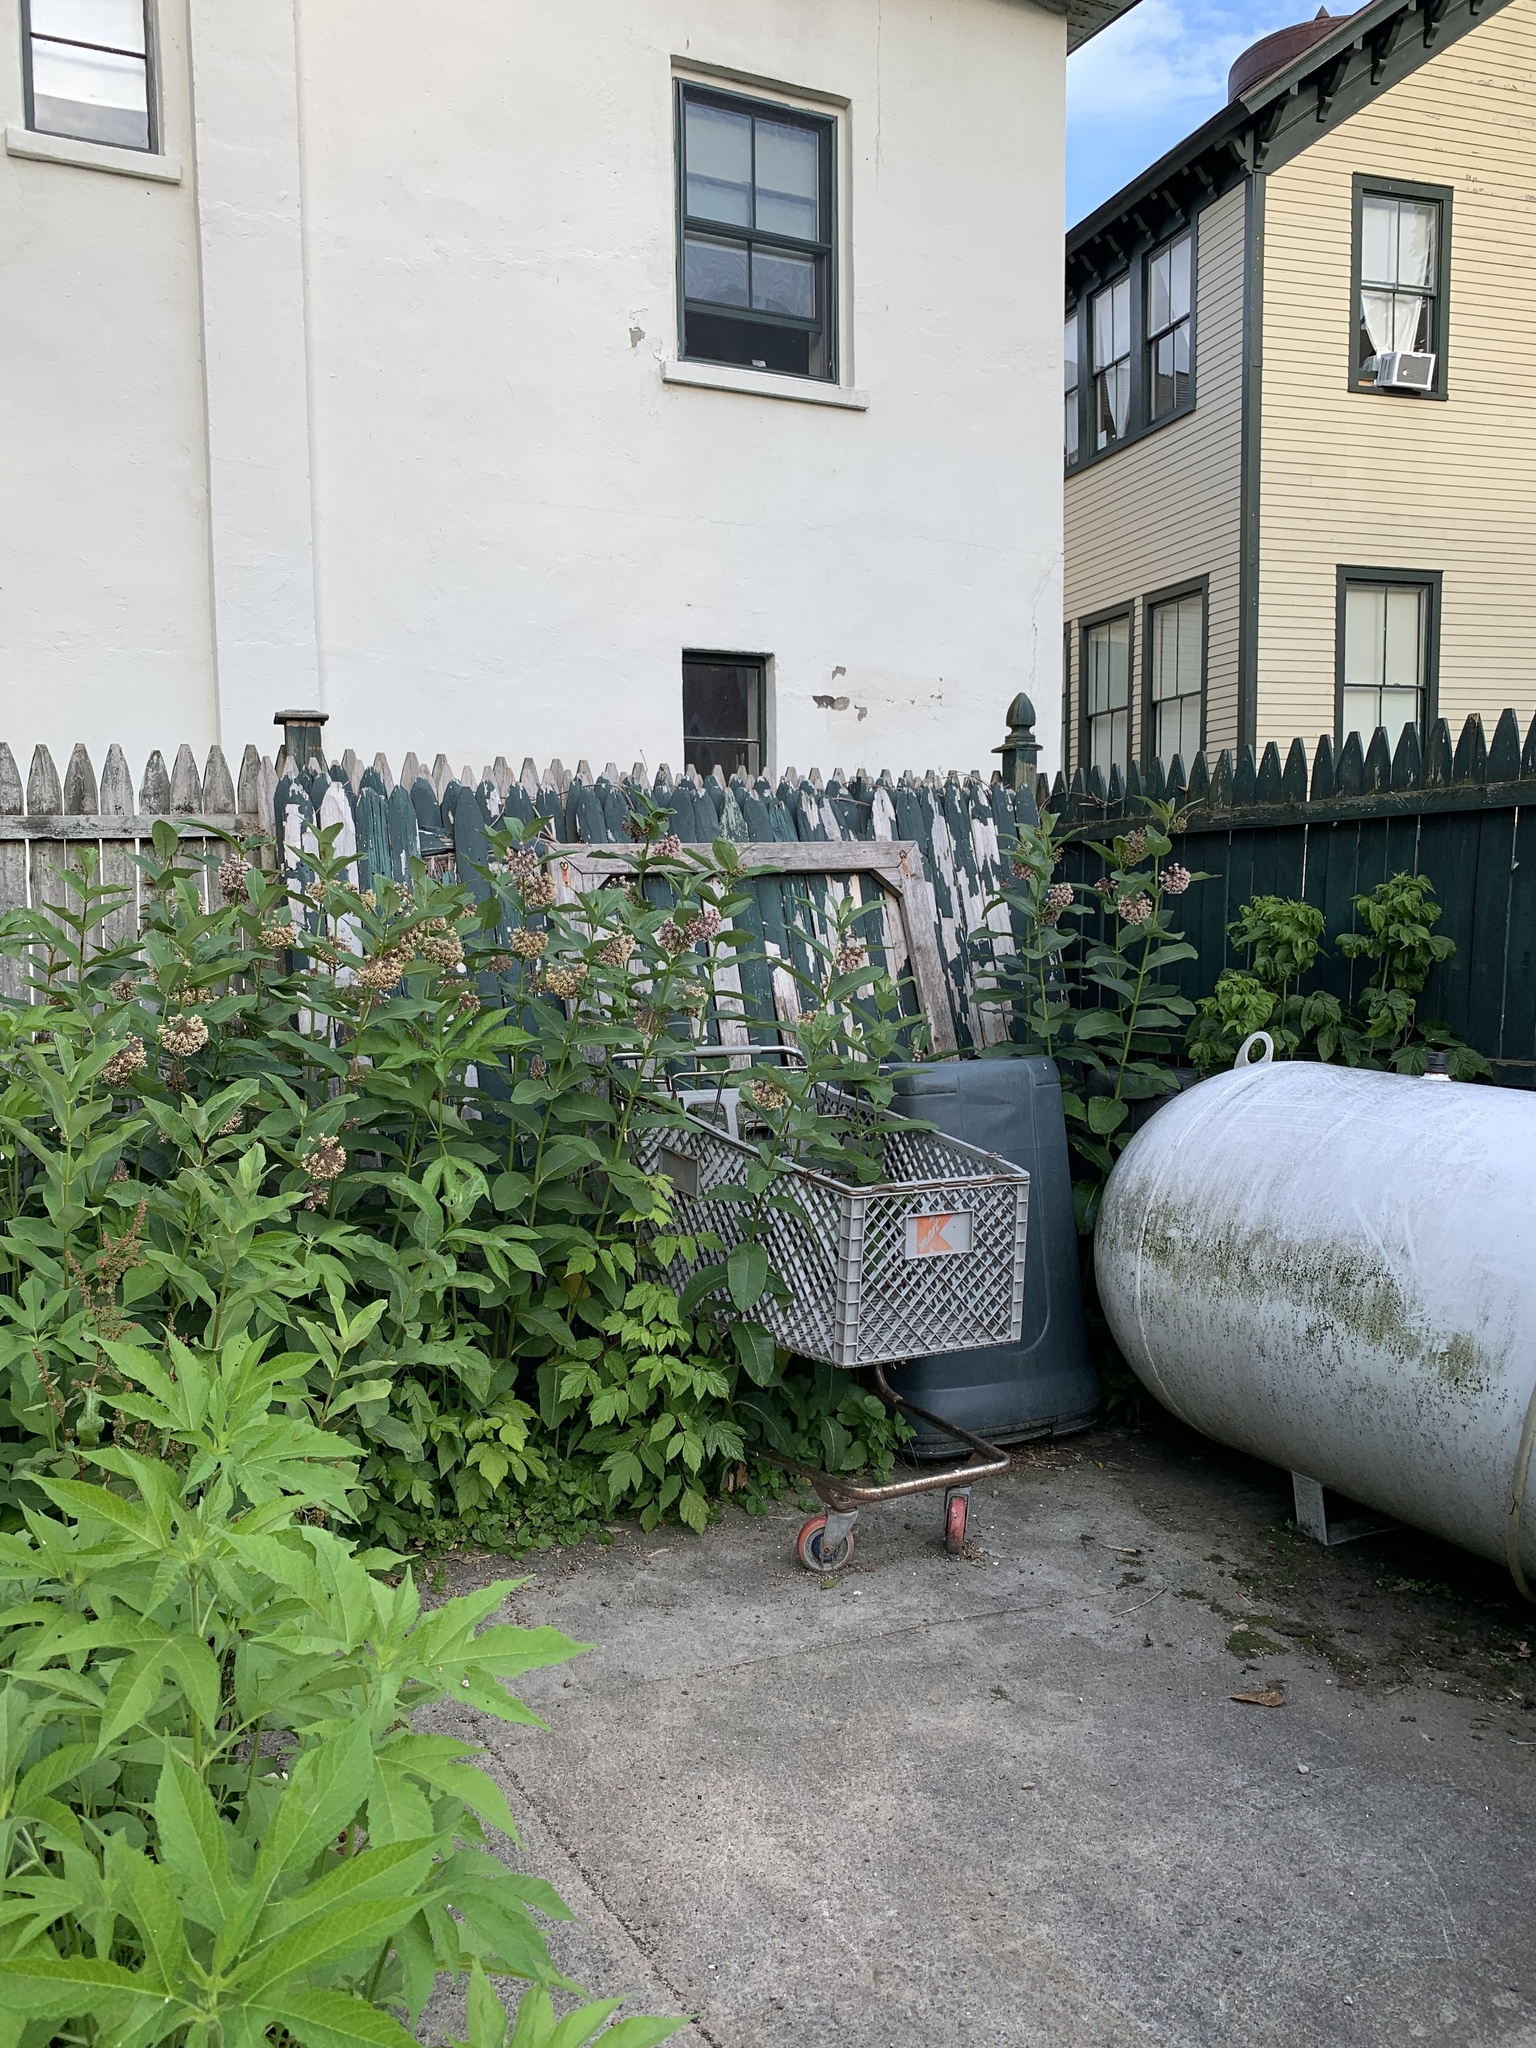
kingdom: Plantae
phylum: Tracheophyta
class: Magnoliopsida
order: Gentianales
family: Apocynaceae
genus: Asclepias
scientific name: Asclepias syriaca
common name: Common milkweed
